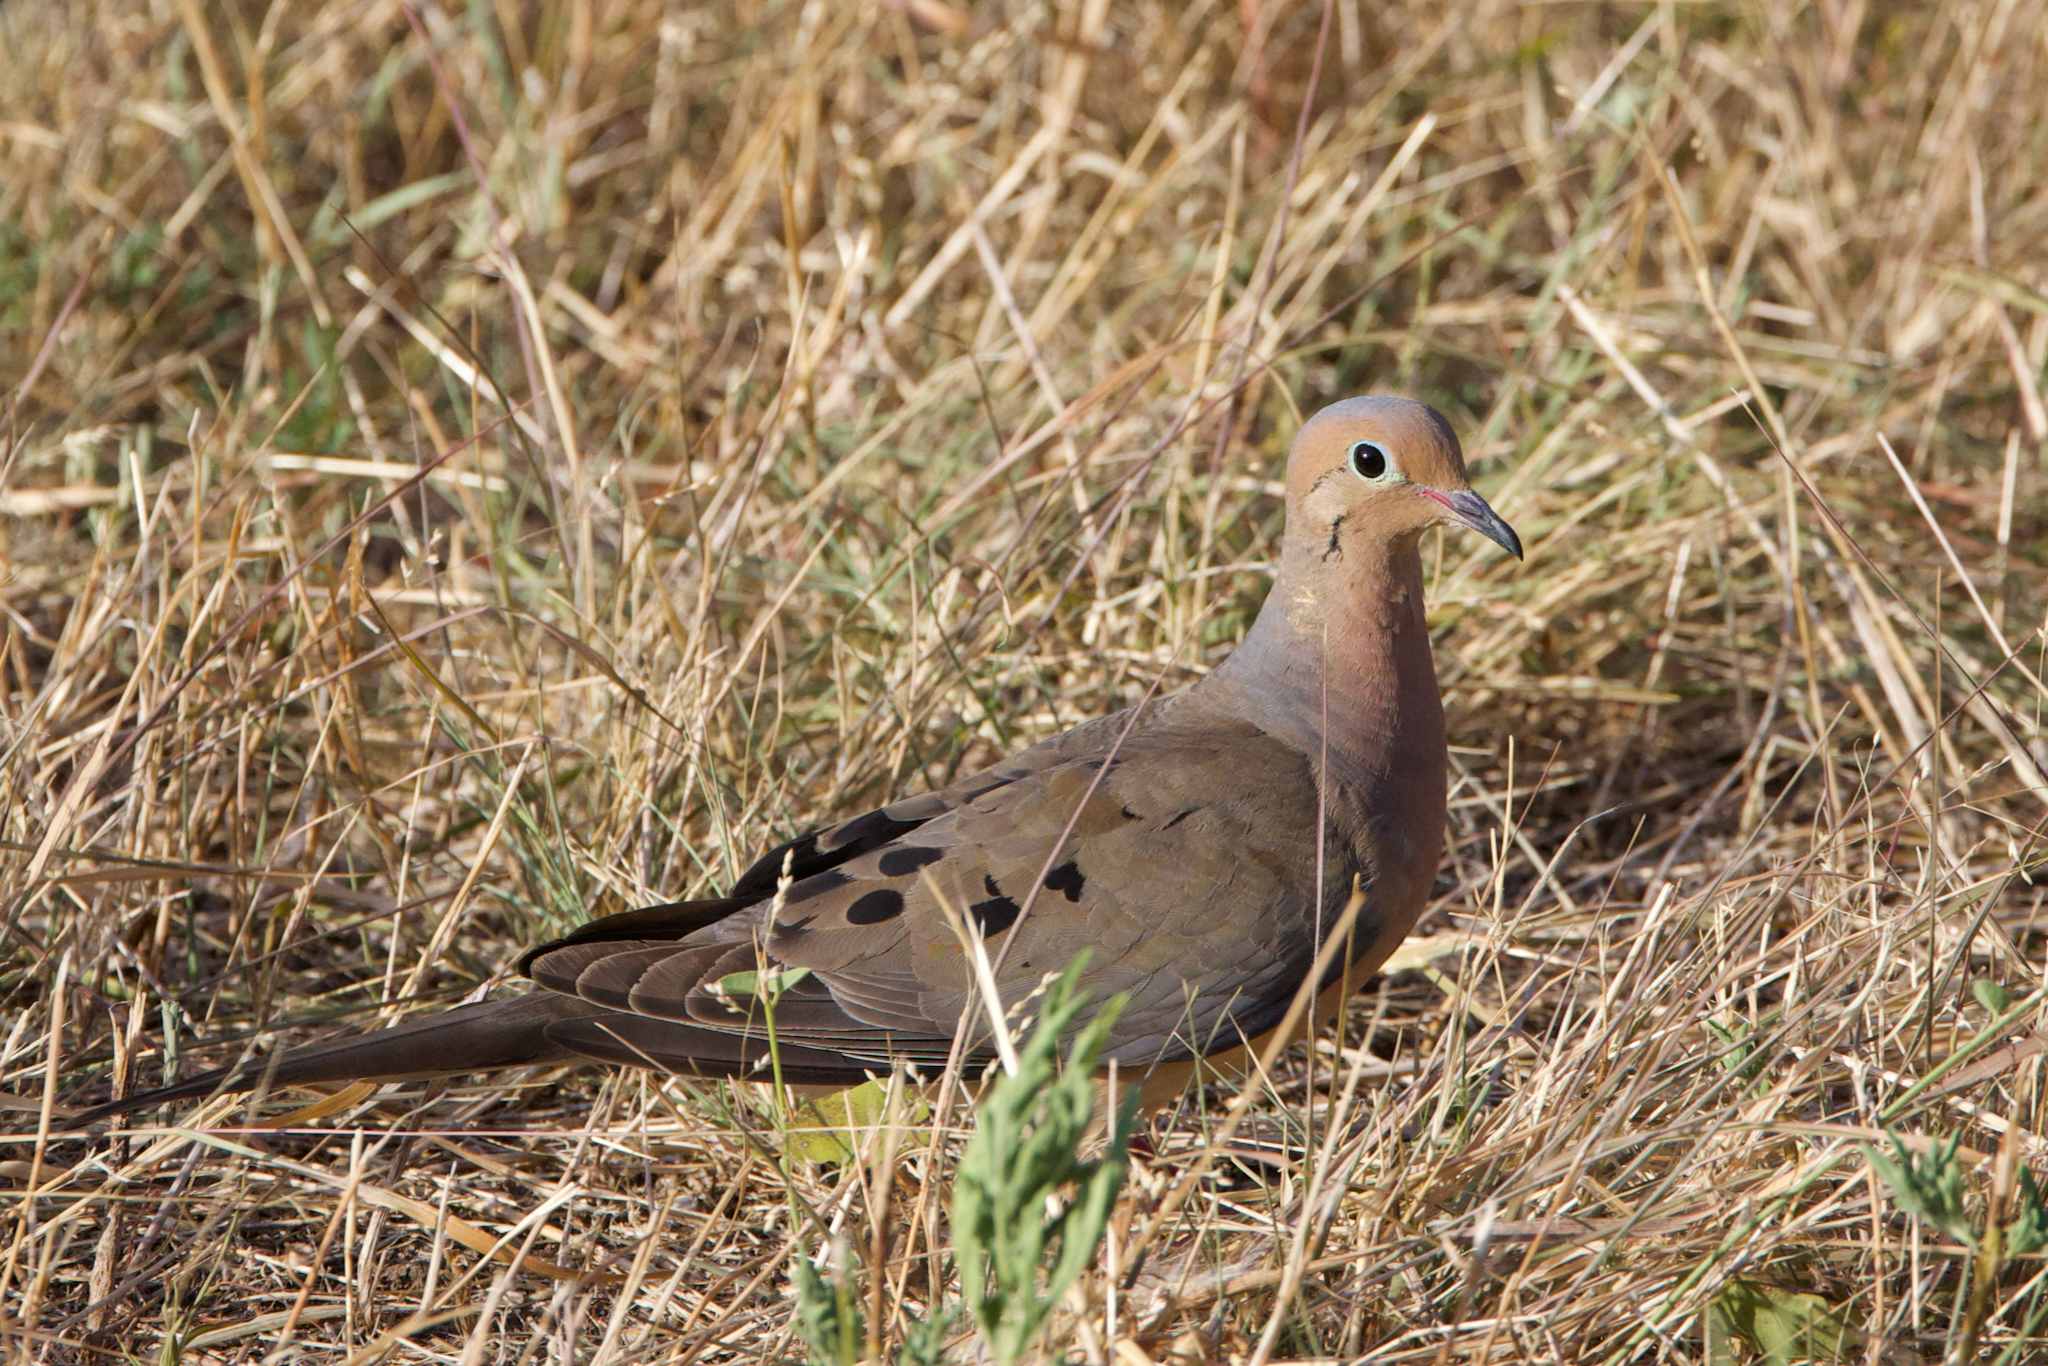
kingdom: Animalia
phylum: Chordata
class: Aves
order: Columbiformes
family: Columbidae
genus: Zenaida
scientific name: Zenaida macroura
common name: Mourning dove
